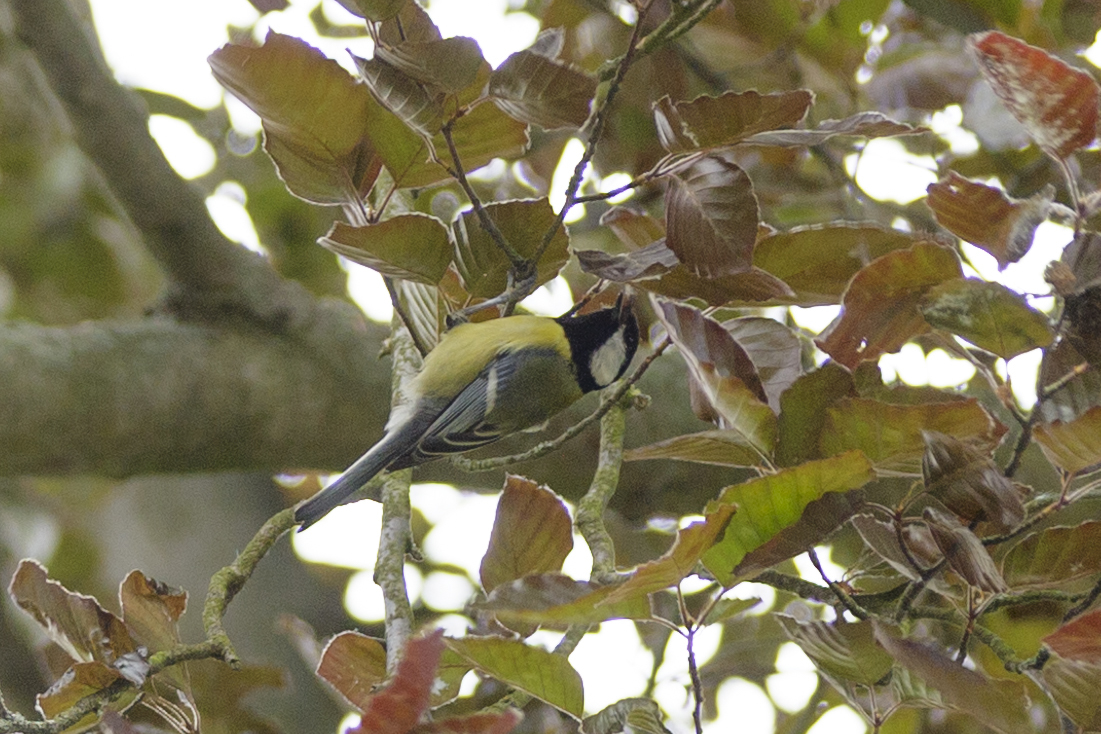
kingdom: Animalia
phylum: Chordata
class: Aves
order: Passeriformes
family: Paridae
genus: Parus
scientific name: Parus major
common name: Great tit
